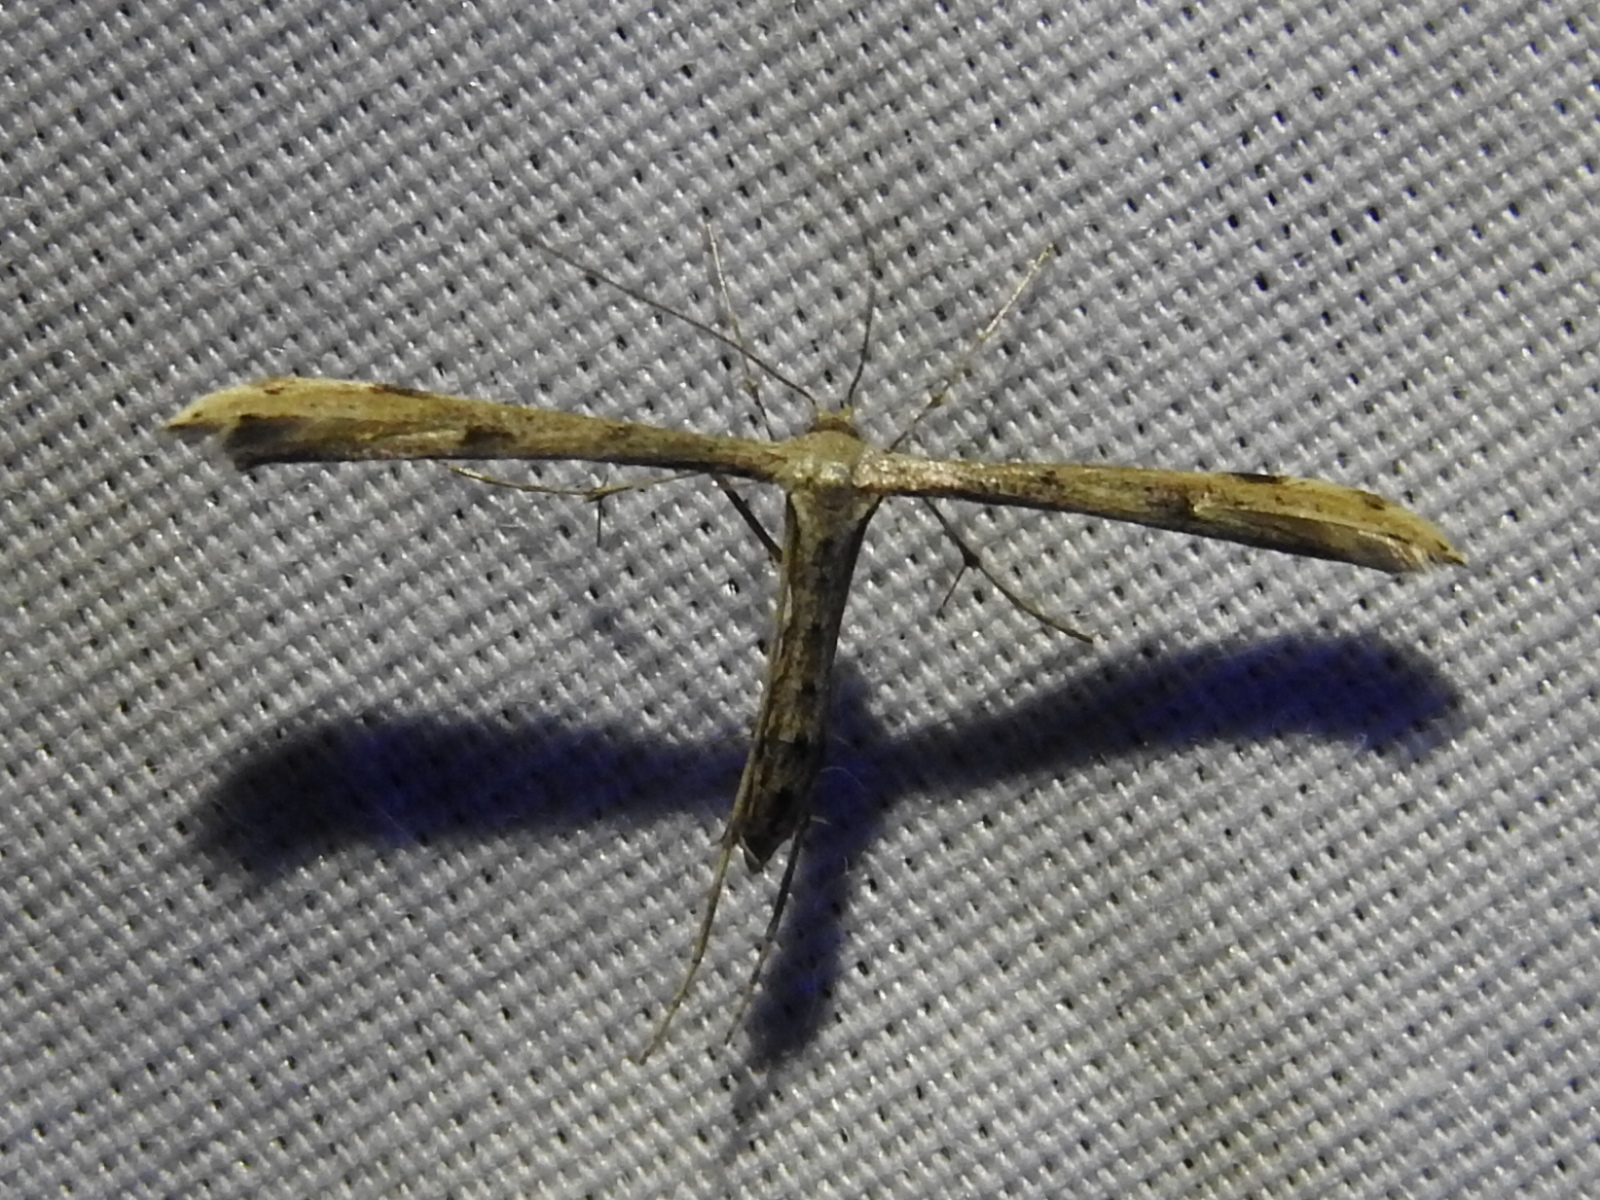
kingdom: Animalia
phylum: Arthropoda
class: Insecta
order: Lepidoptera
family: Pterophoridae
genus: Adaina
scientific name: Adaina ambrosiae
